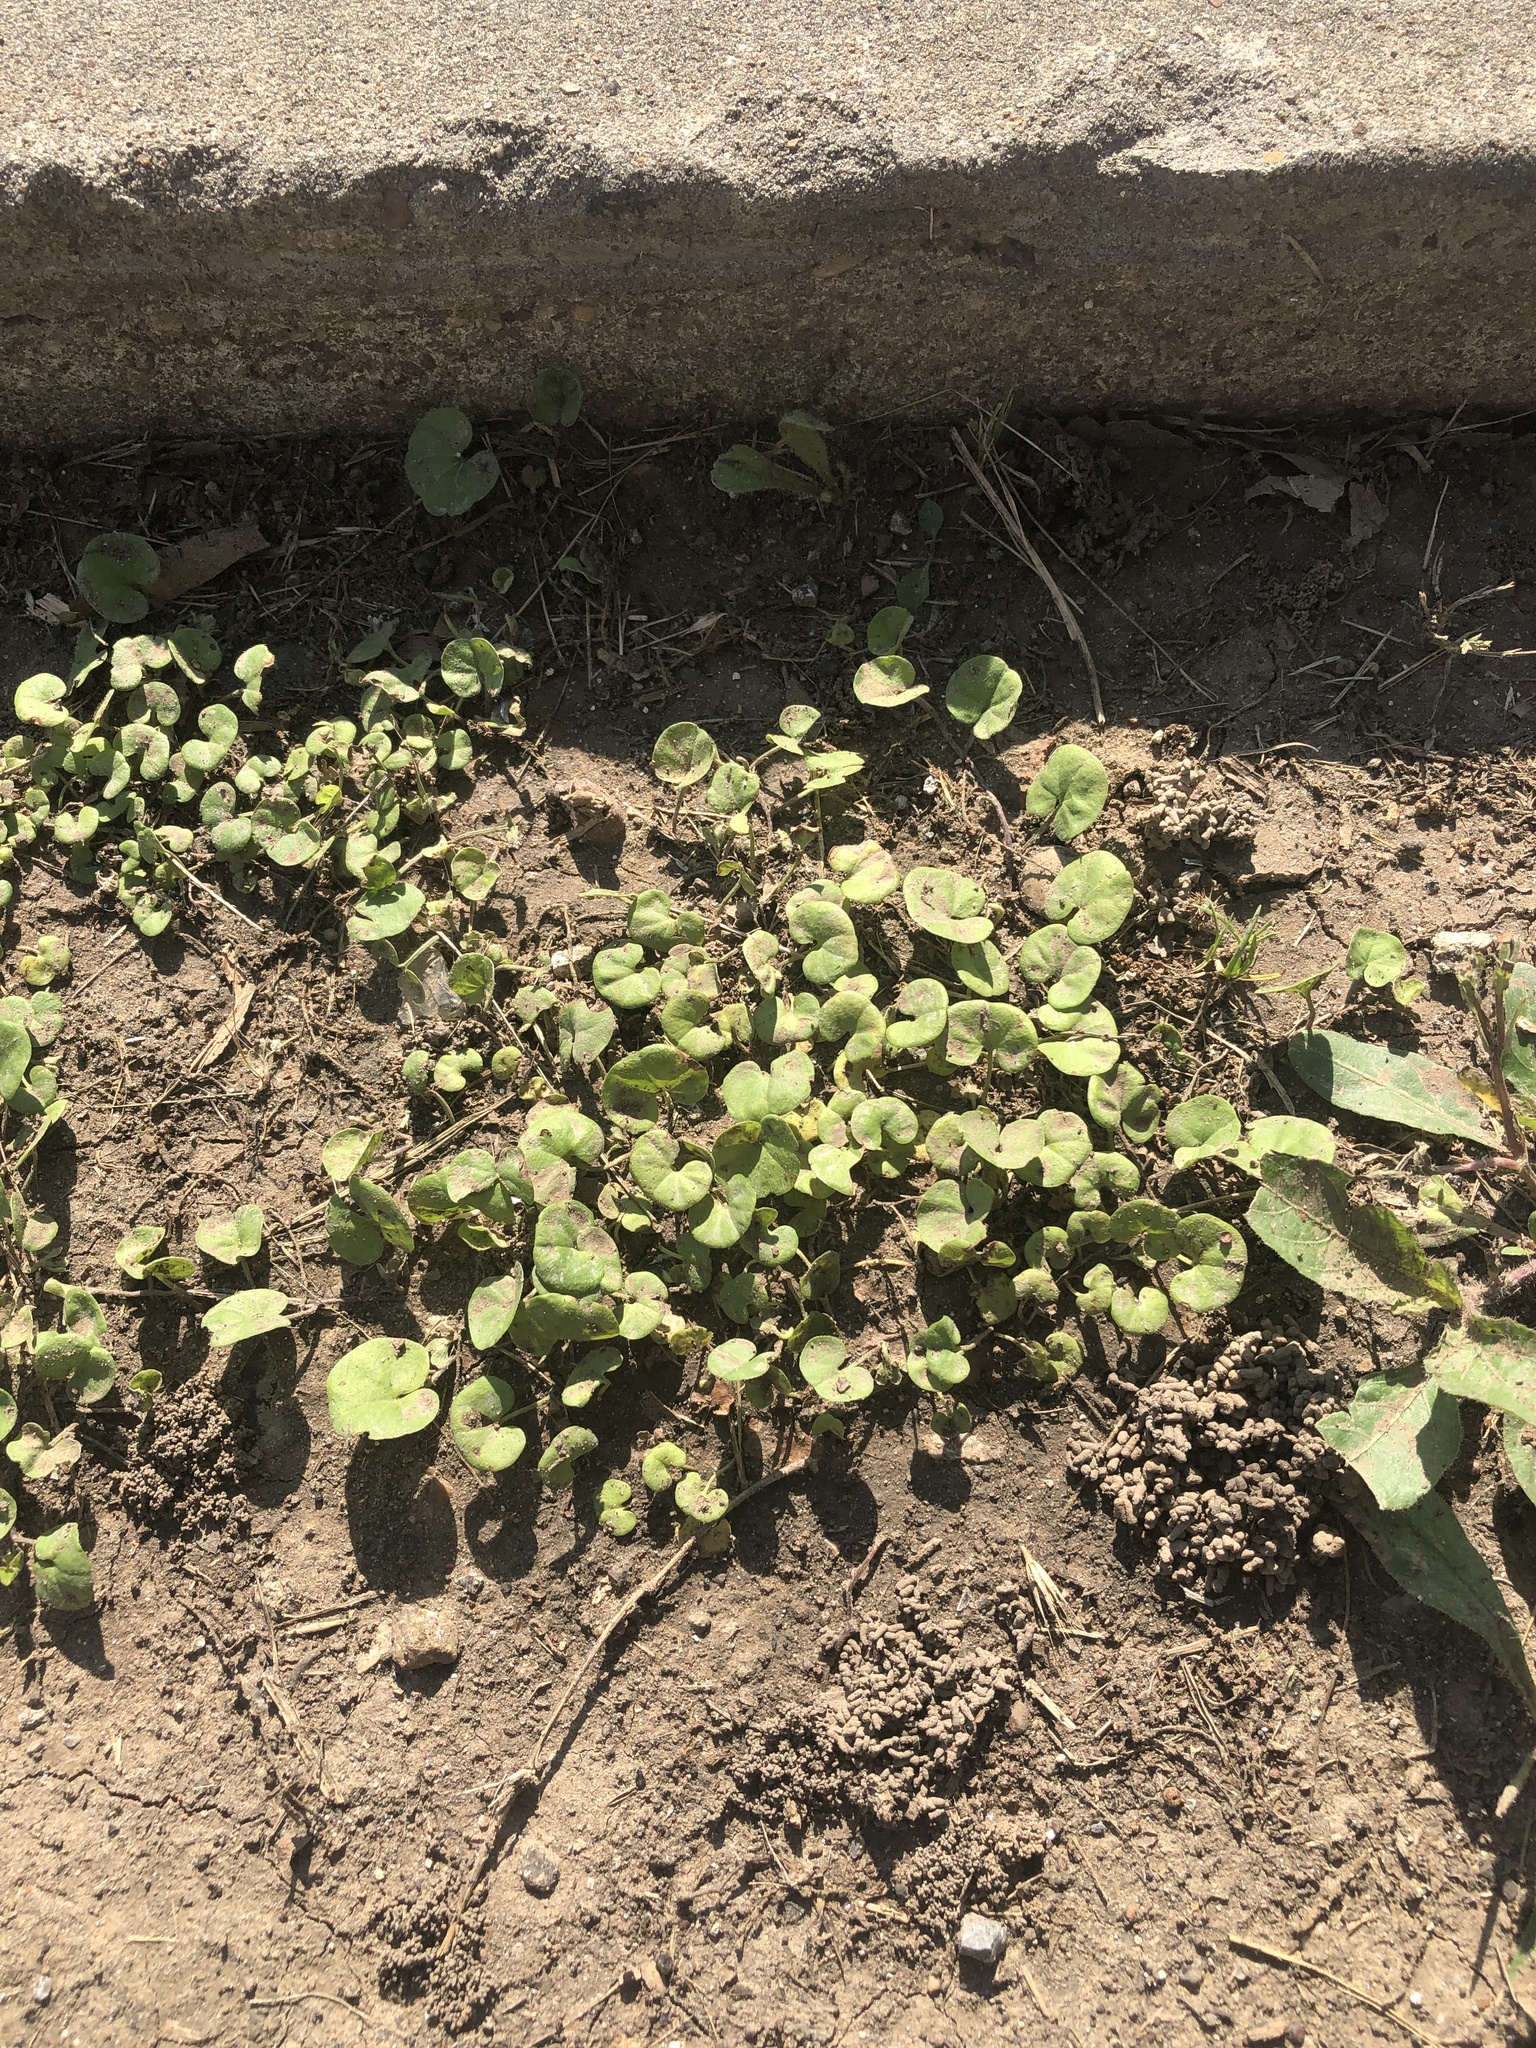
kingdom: Plantae
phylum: Tracheophyta
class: Magnoliopsida
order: Solanales
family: Convolvulaceae
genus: Dichondra
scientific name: Dichondra carolinensis
